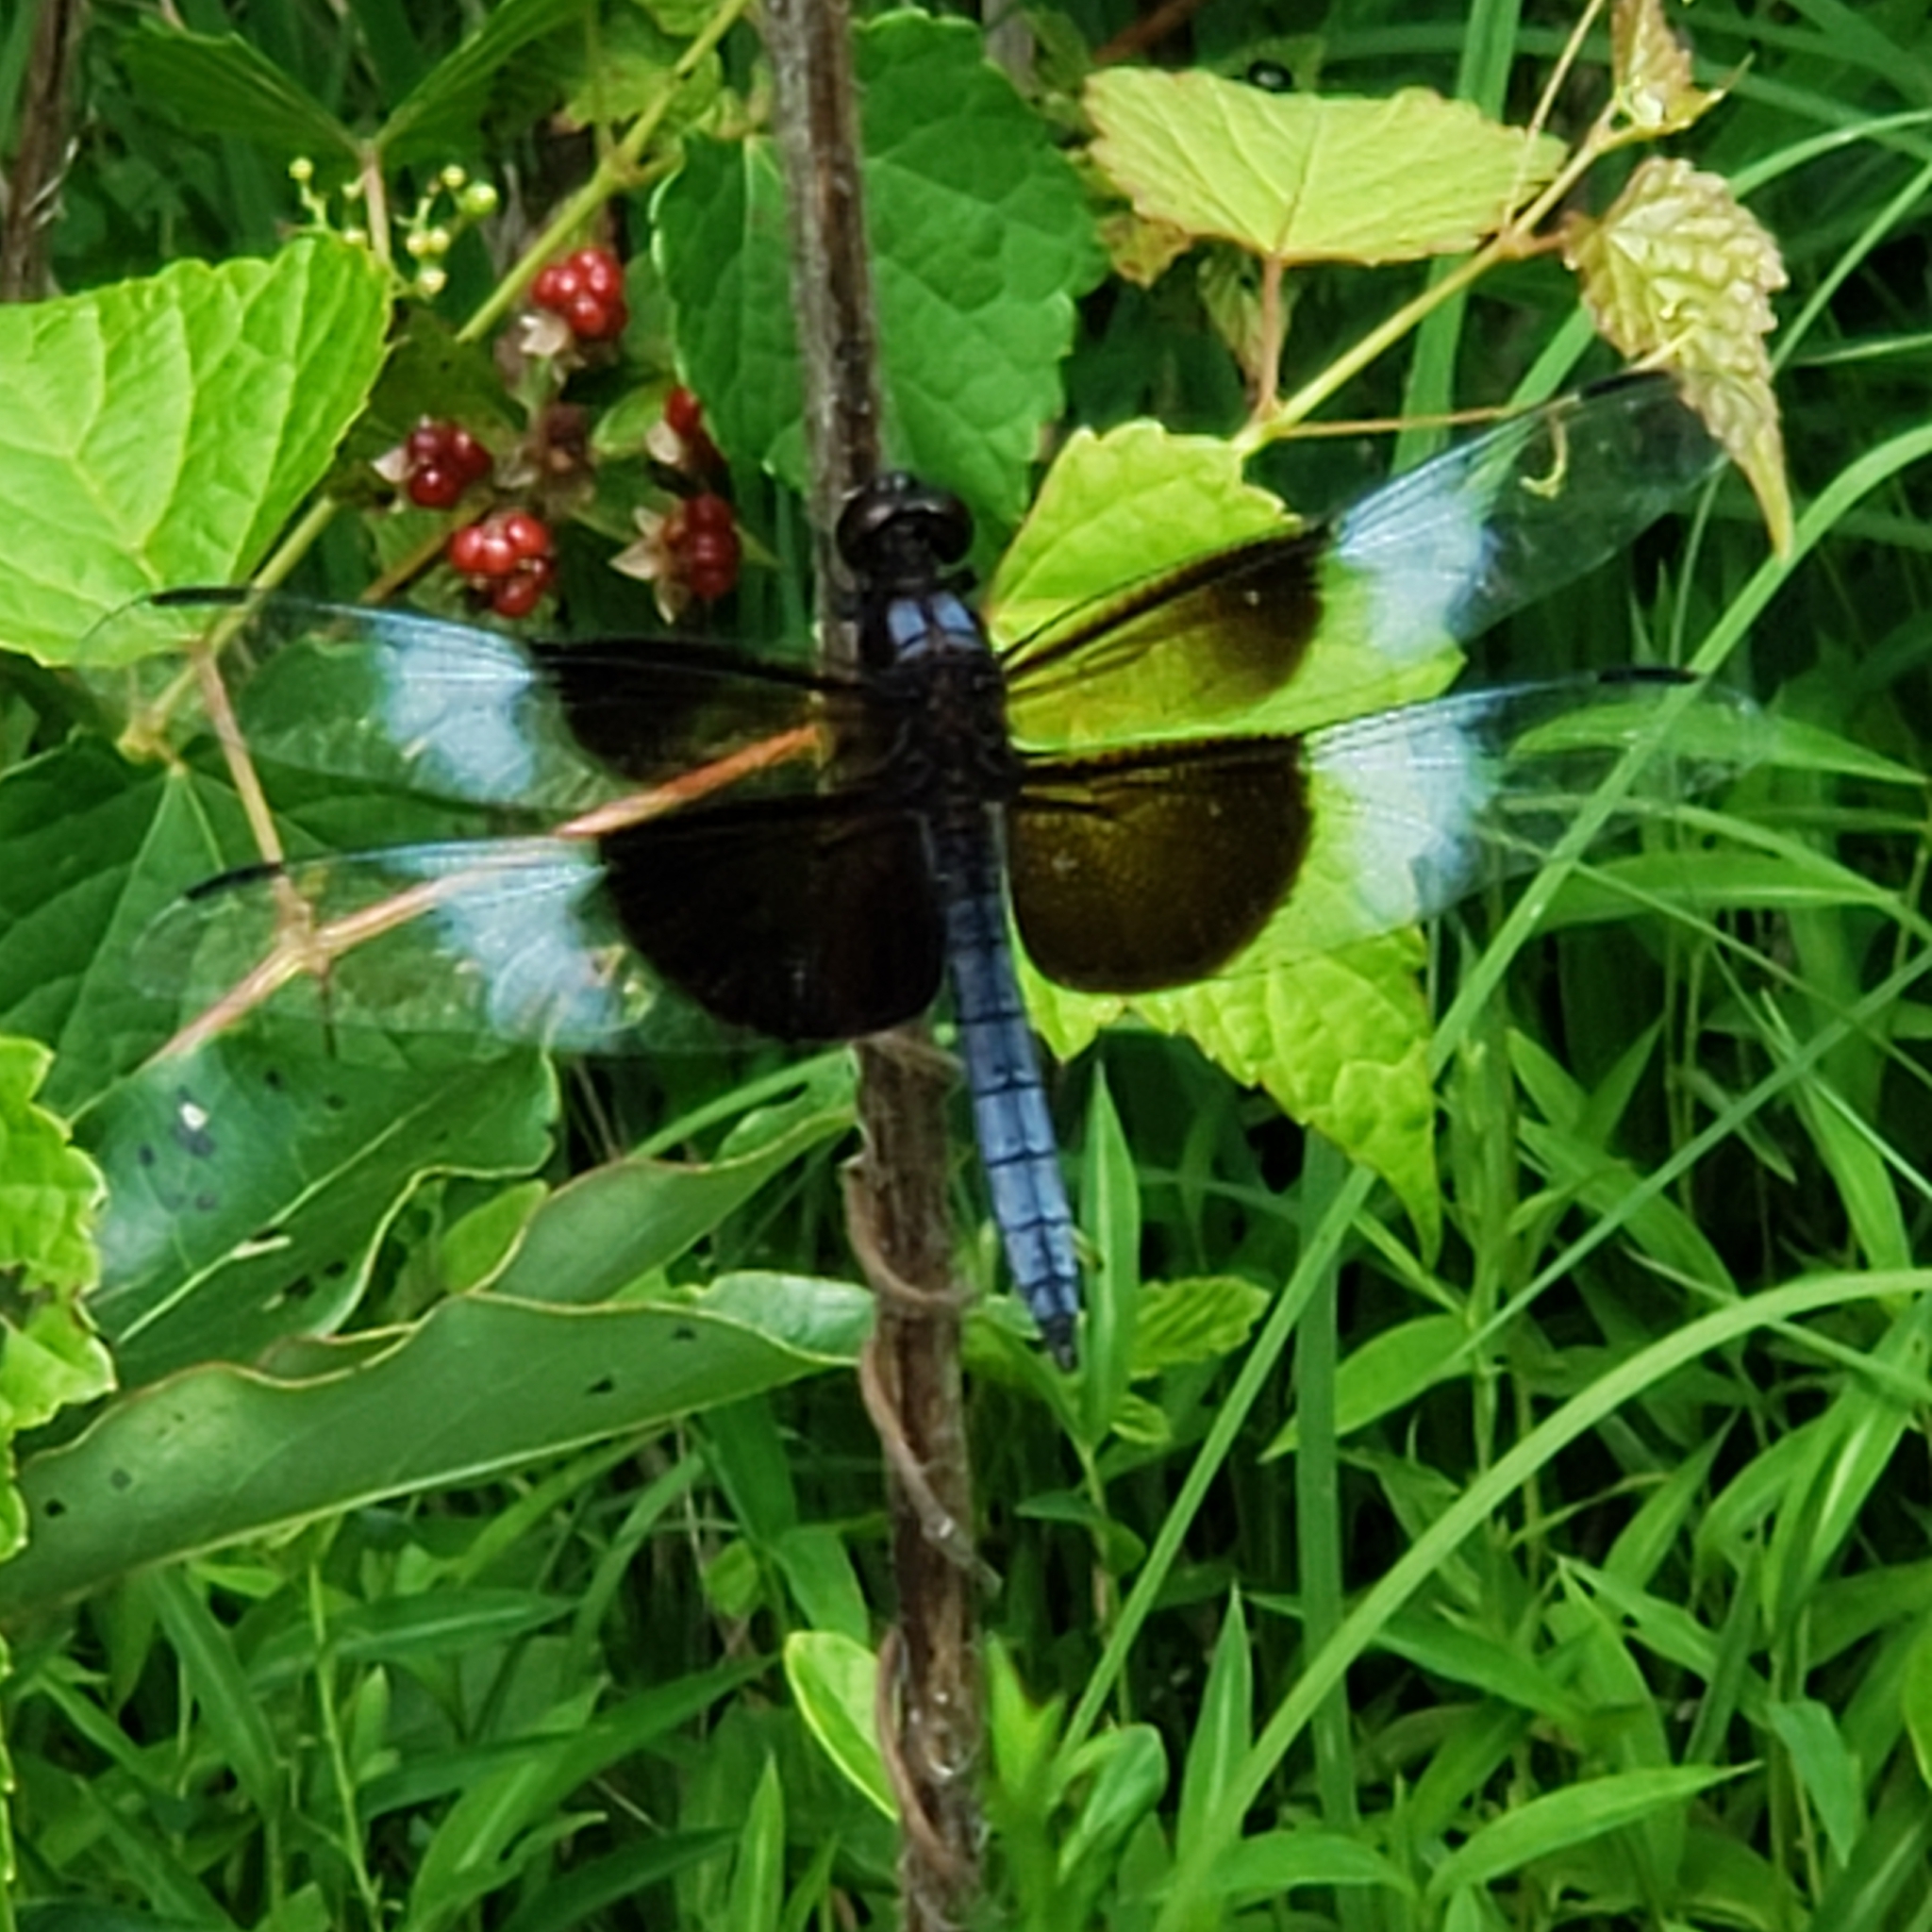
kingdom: Animalia
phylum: Arthropoda
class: Insecta
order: Odonata
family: Libellulidae
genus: Libellula
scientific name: Libellula luctuosa
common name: Widow skimmer
